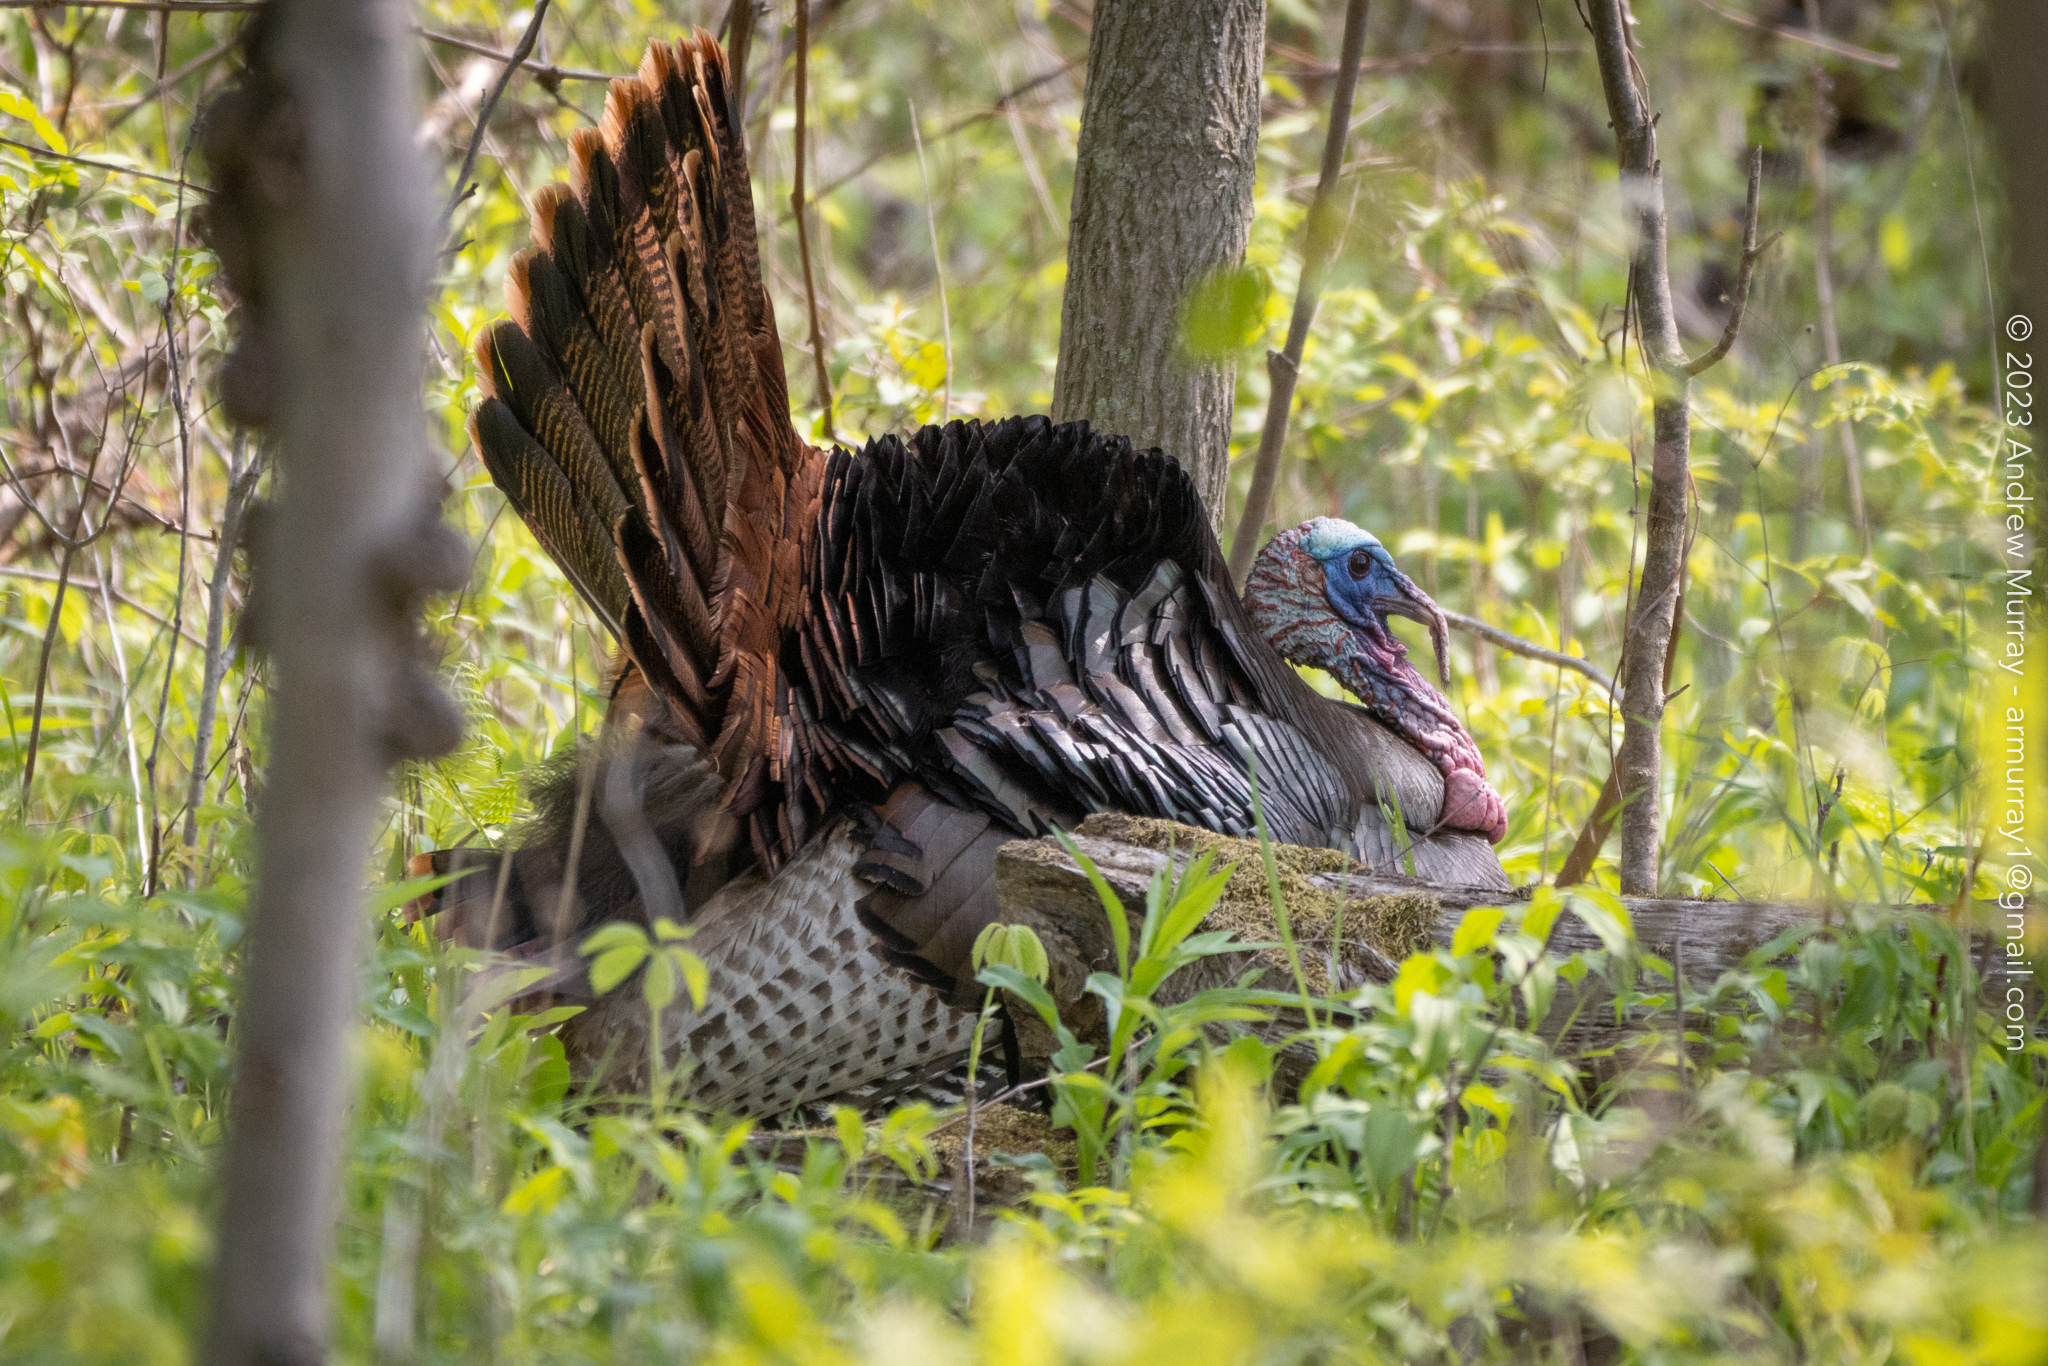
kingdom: Animalia
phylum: Chordata
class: Aves
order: Galliformes
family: Phasianidae
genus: Meleagris
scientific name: Meleagris gallopavo
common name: Wild turkey
